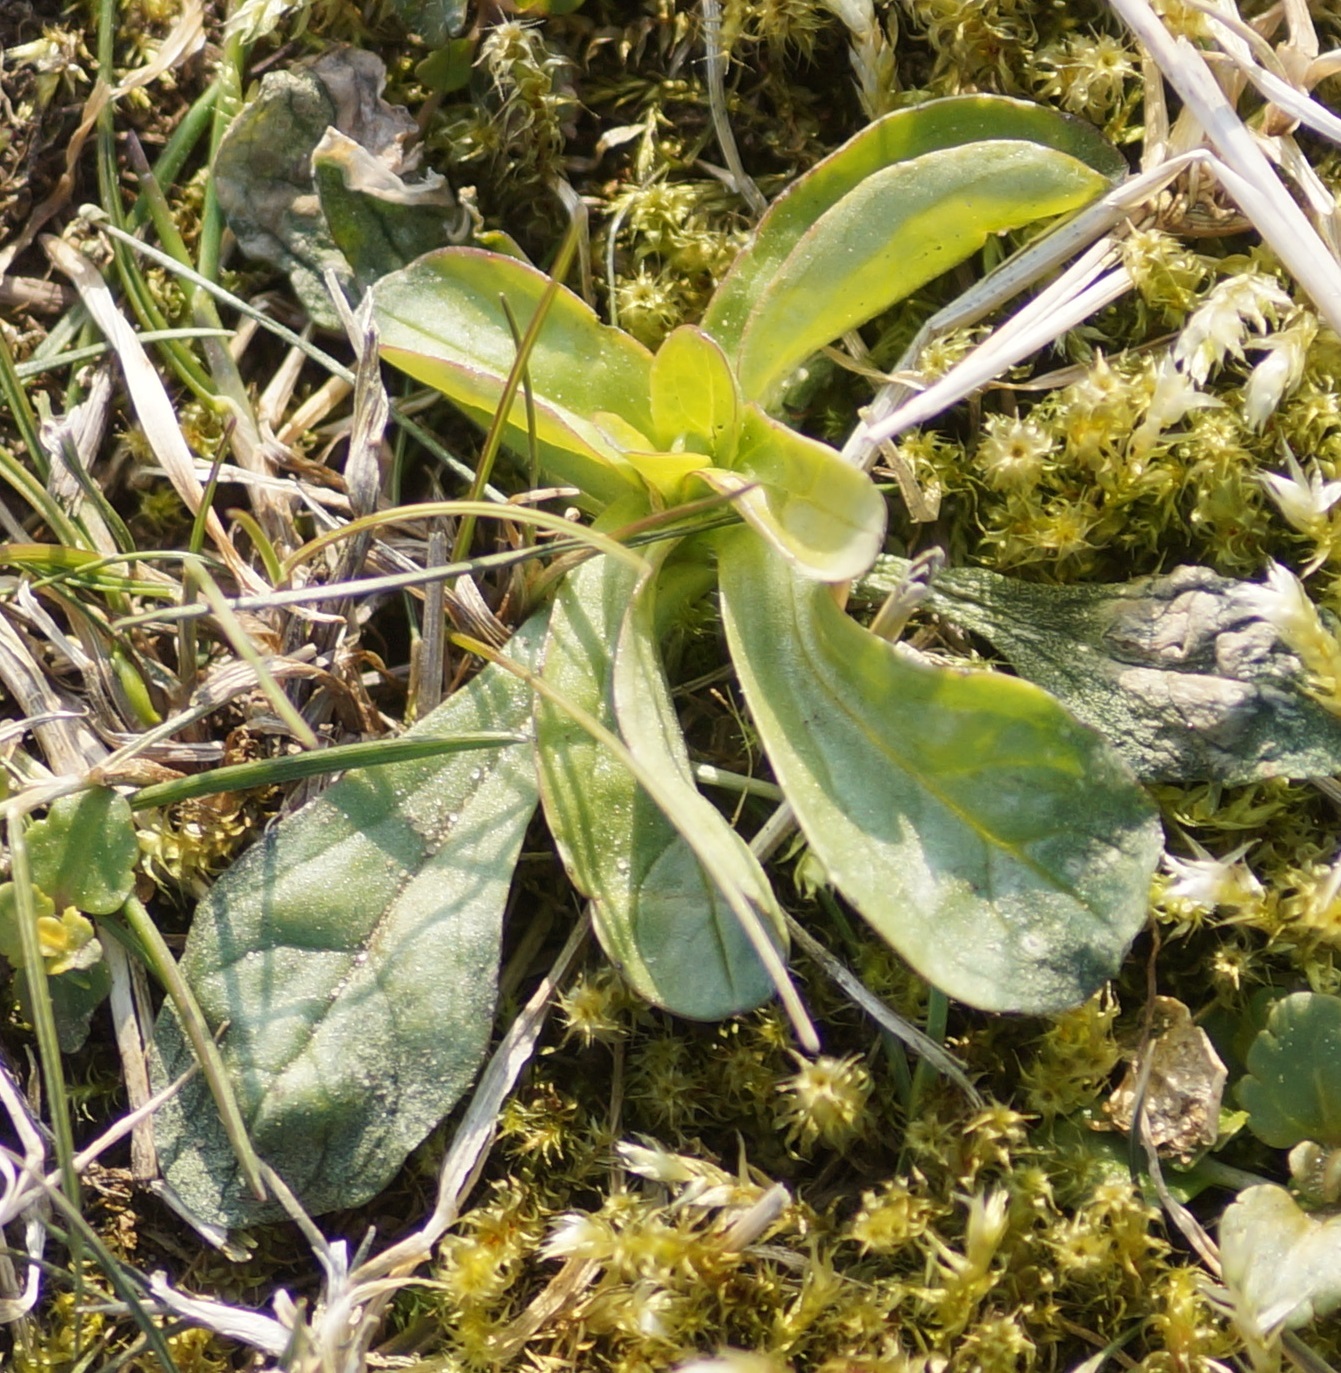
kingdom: Plantae
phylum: Tracheophyta
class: Magnoliopsida
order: Dipsacales
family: Caprifoliaceae
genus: Valerianella
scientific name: Valerianella locusta
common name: Common cornsalad
